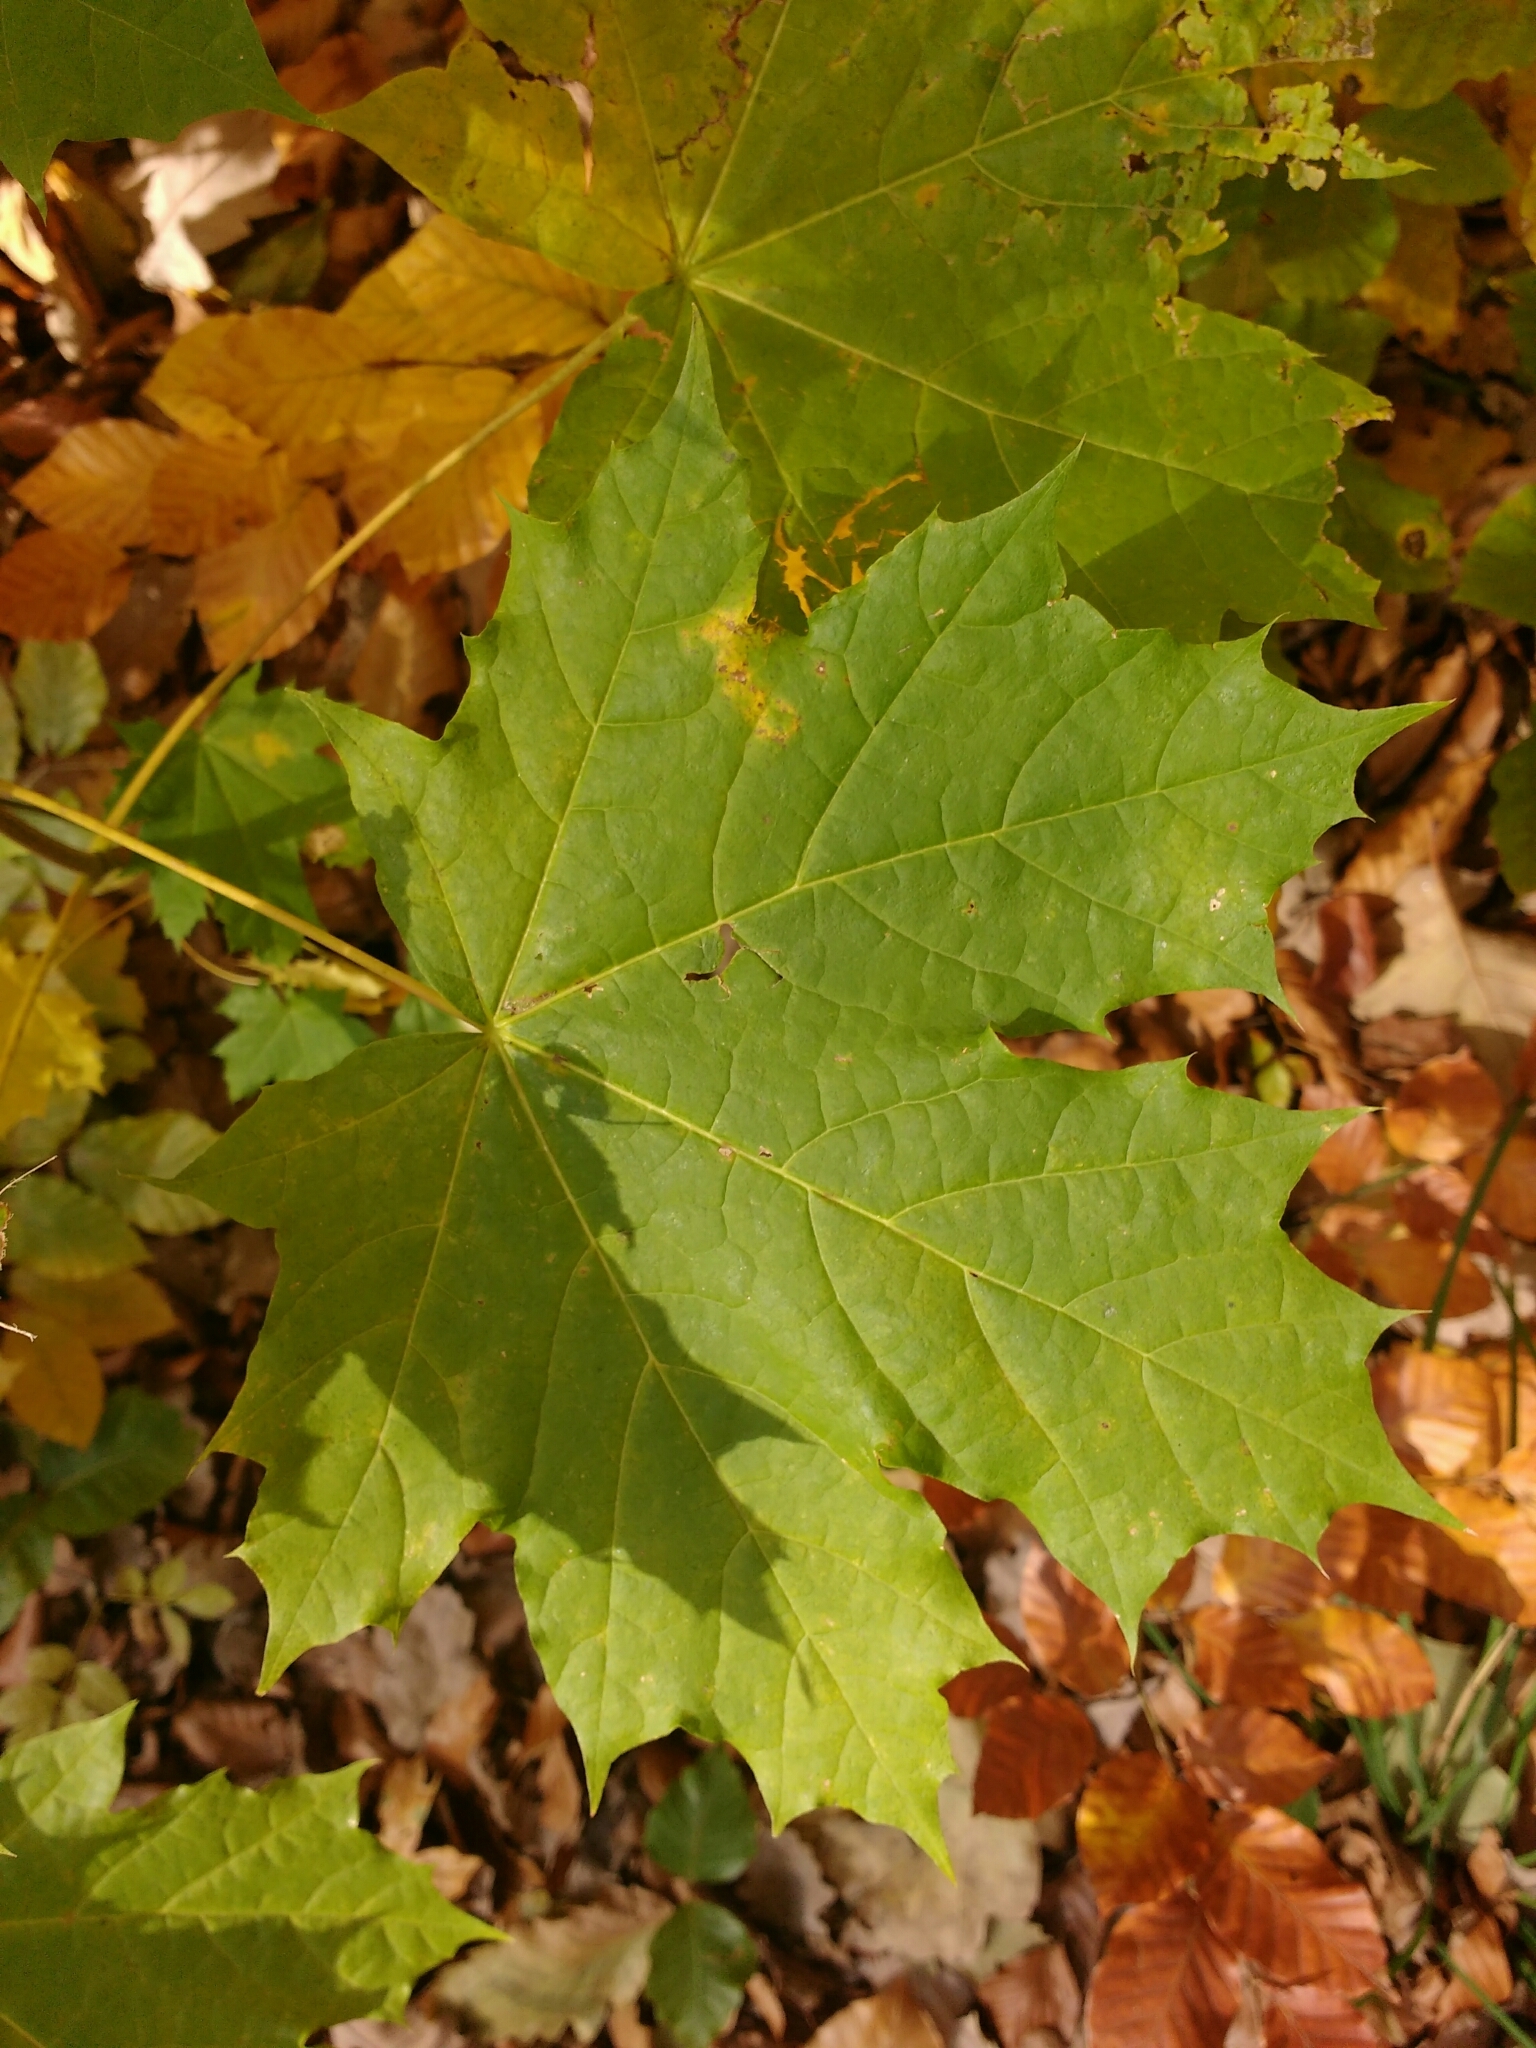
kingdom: Plantae
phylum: Tracheophyta
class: Magnoliopsida
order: Sapindales
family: Sapindaceae
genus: Acer
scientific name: Acer platanoides
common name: Norway maple
